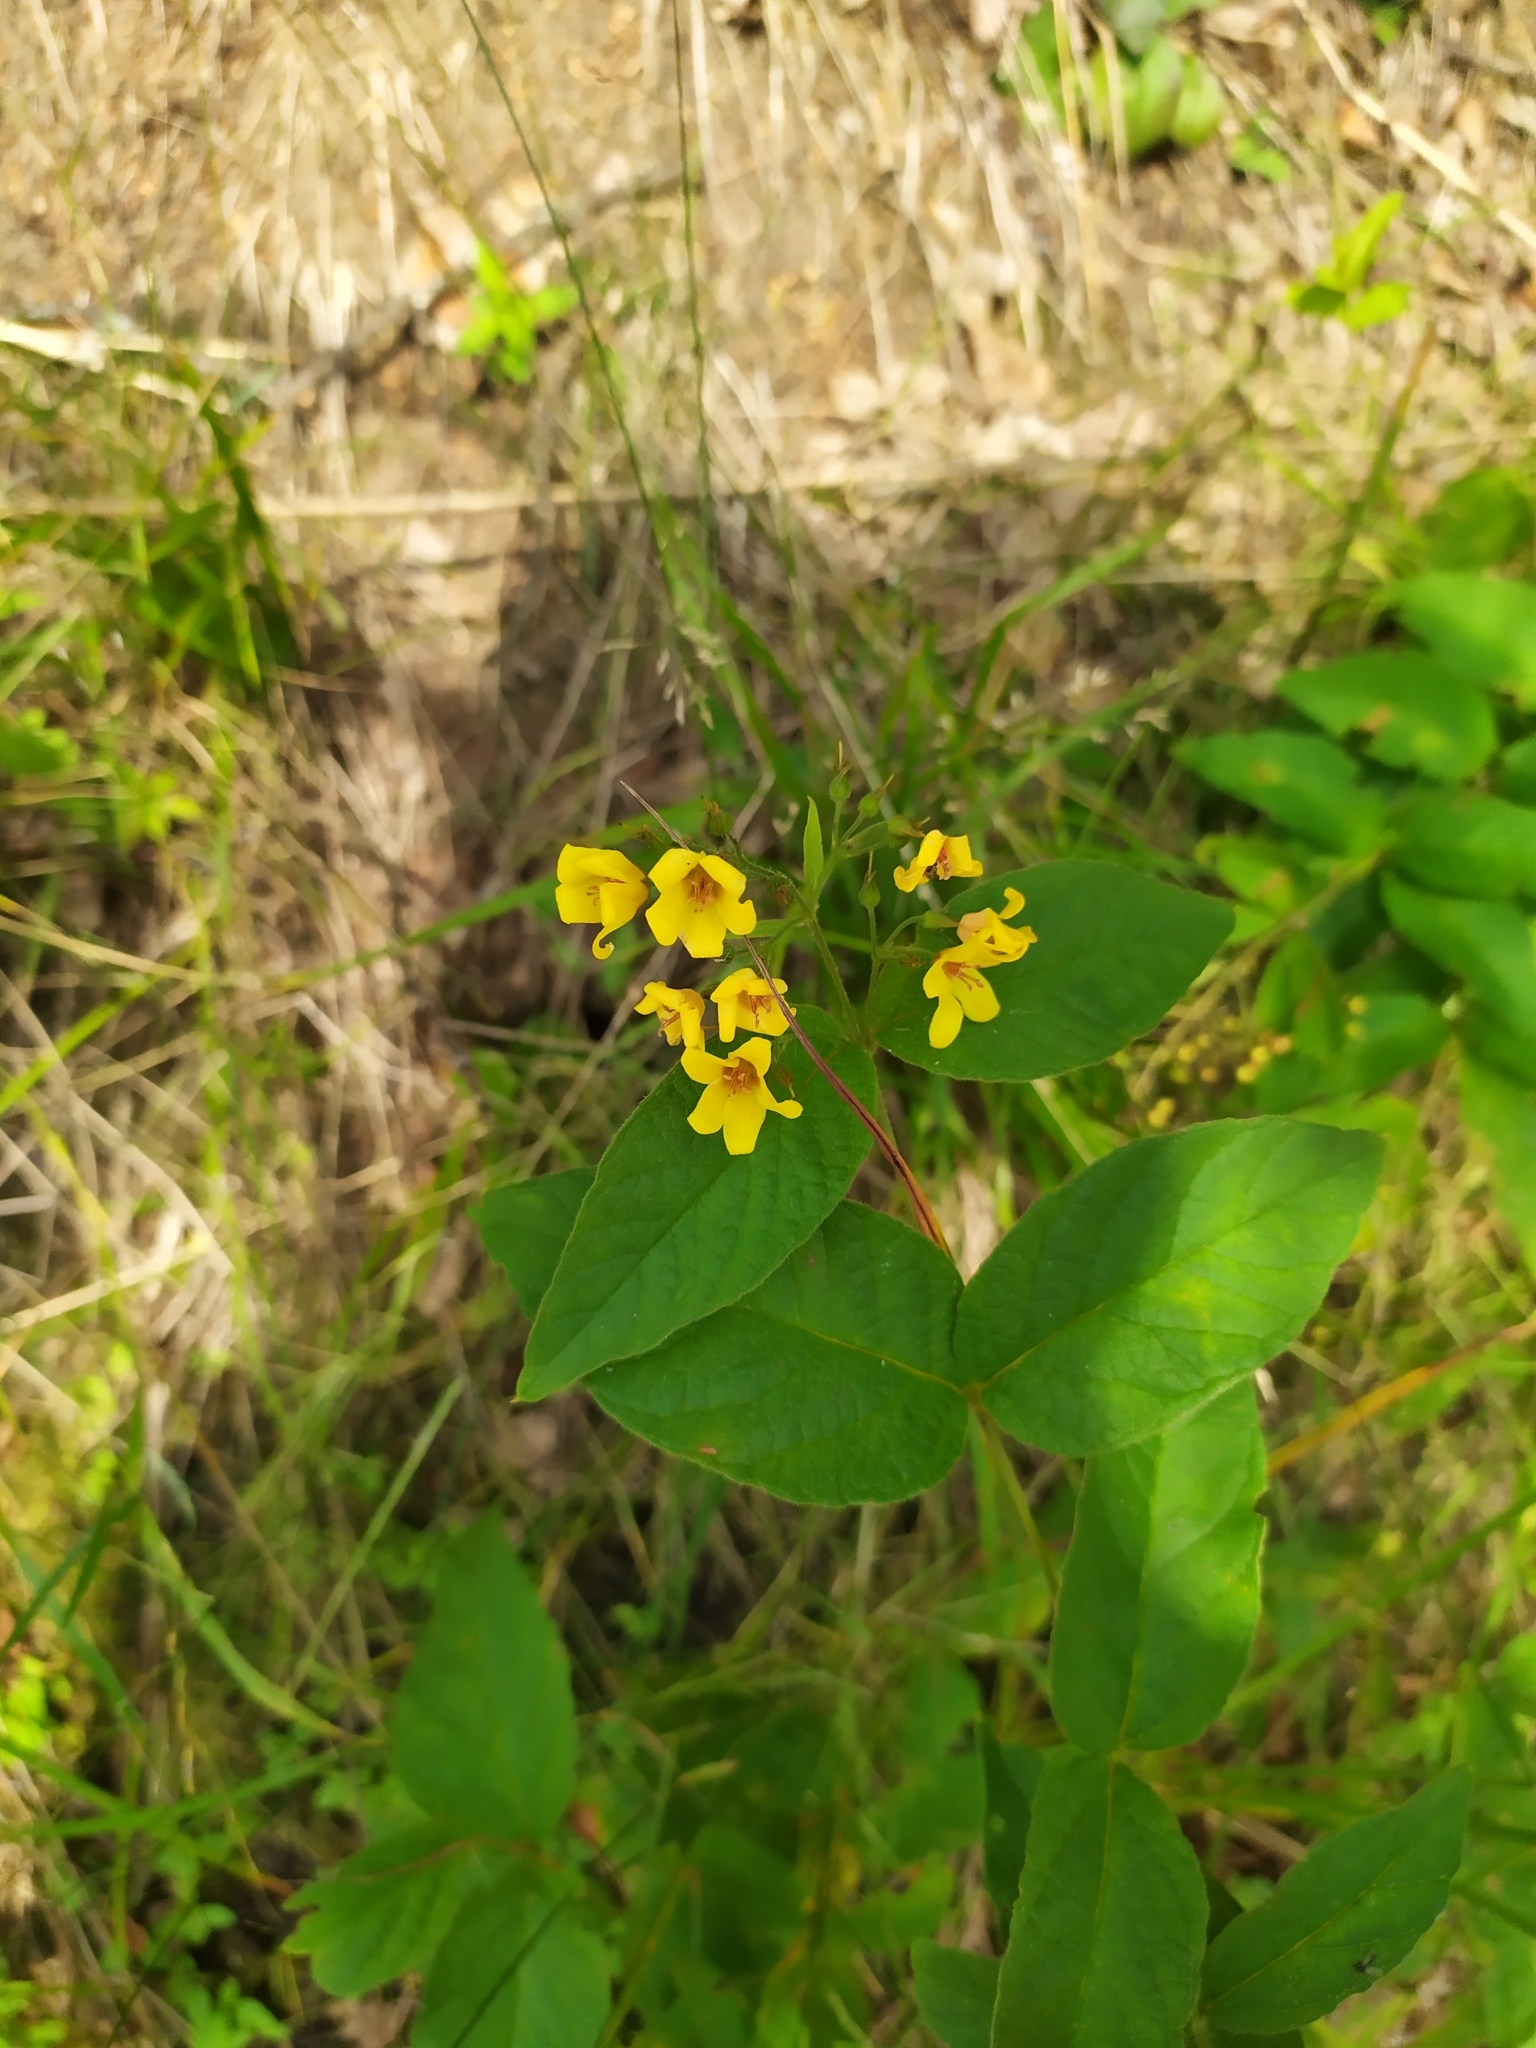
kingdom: Plantae
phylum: Tracheophyta
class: Magnoliopsida
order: Ericales
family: Primulaceae
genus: Lysimachia
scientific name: Lysimachia vulgaris
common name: Yellow loosestrife
